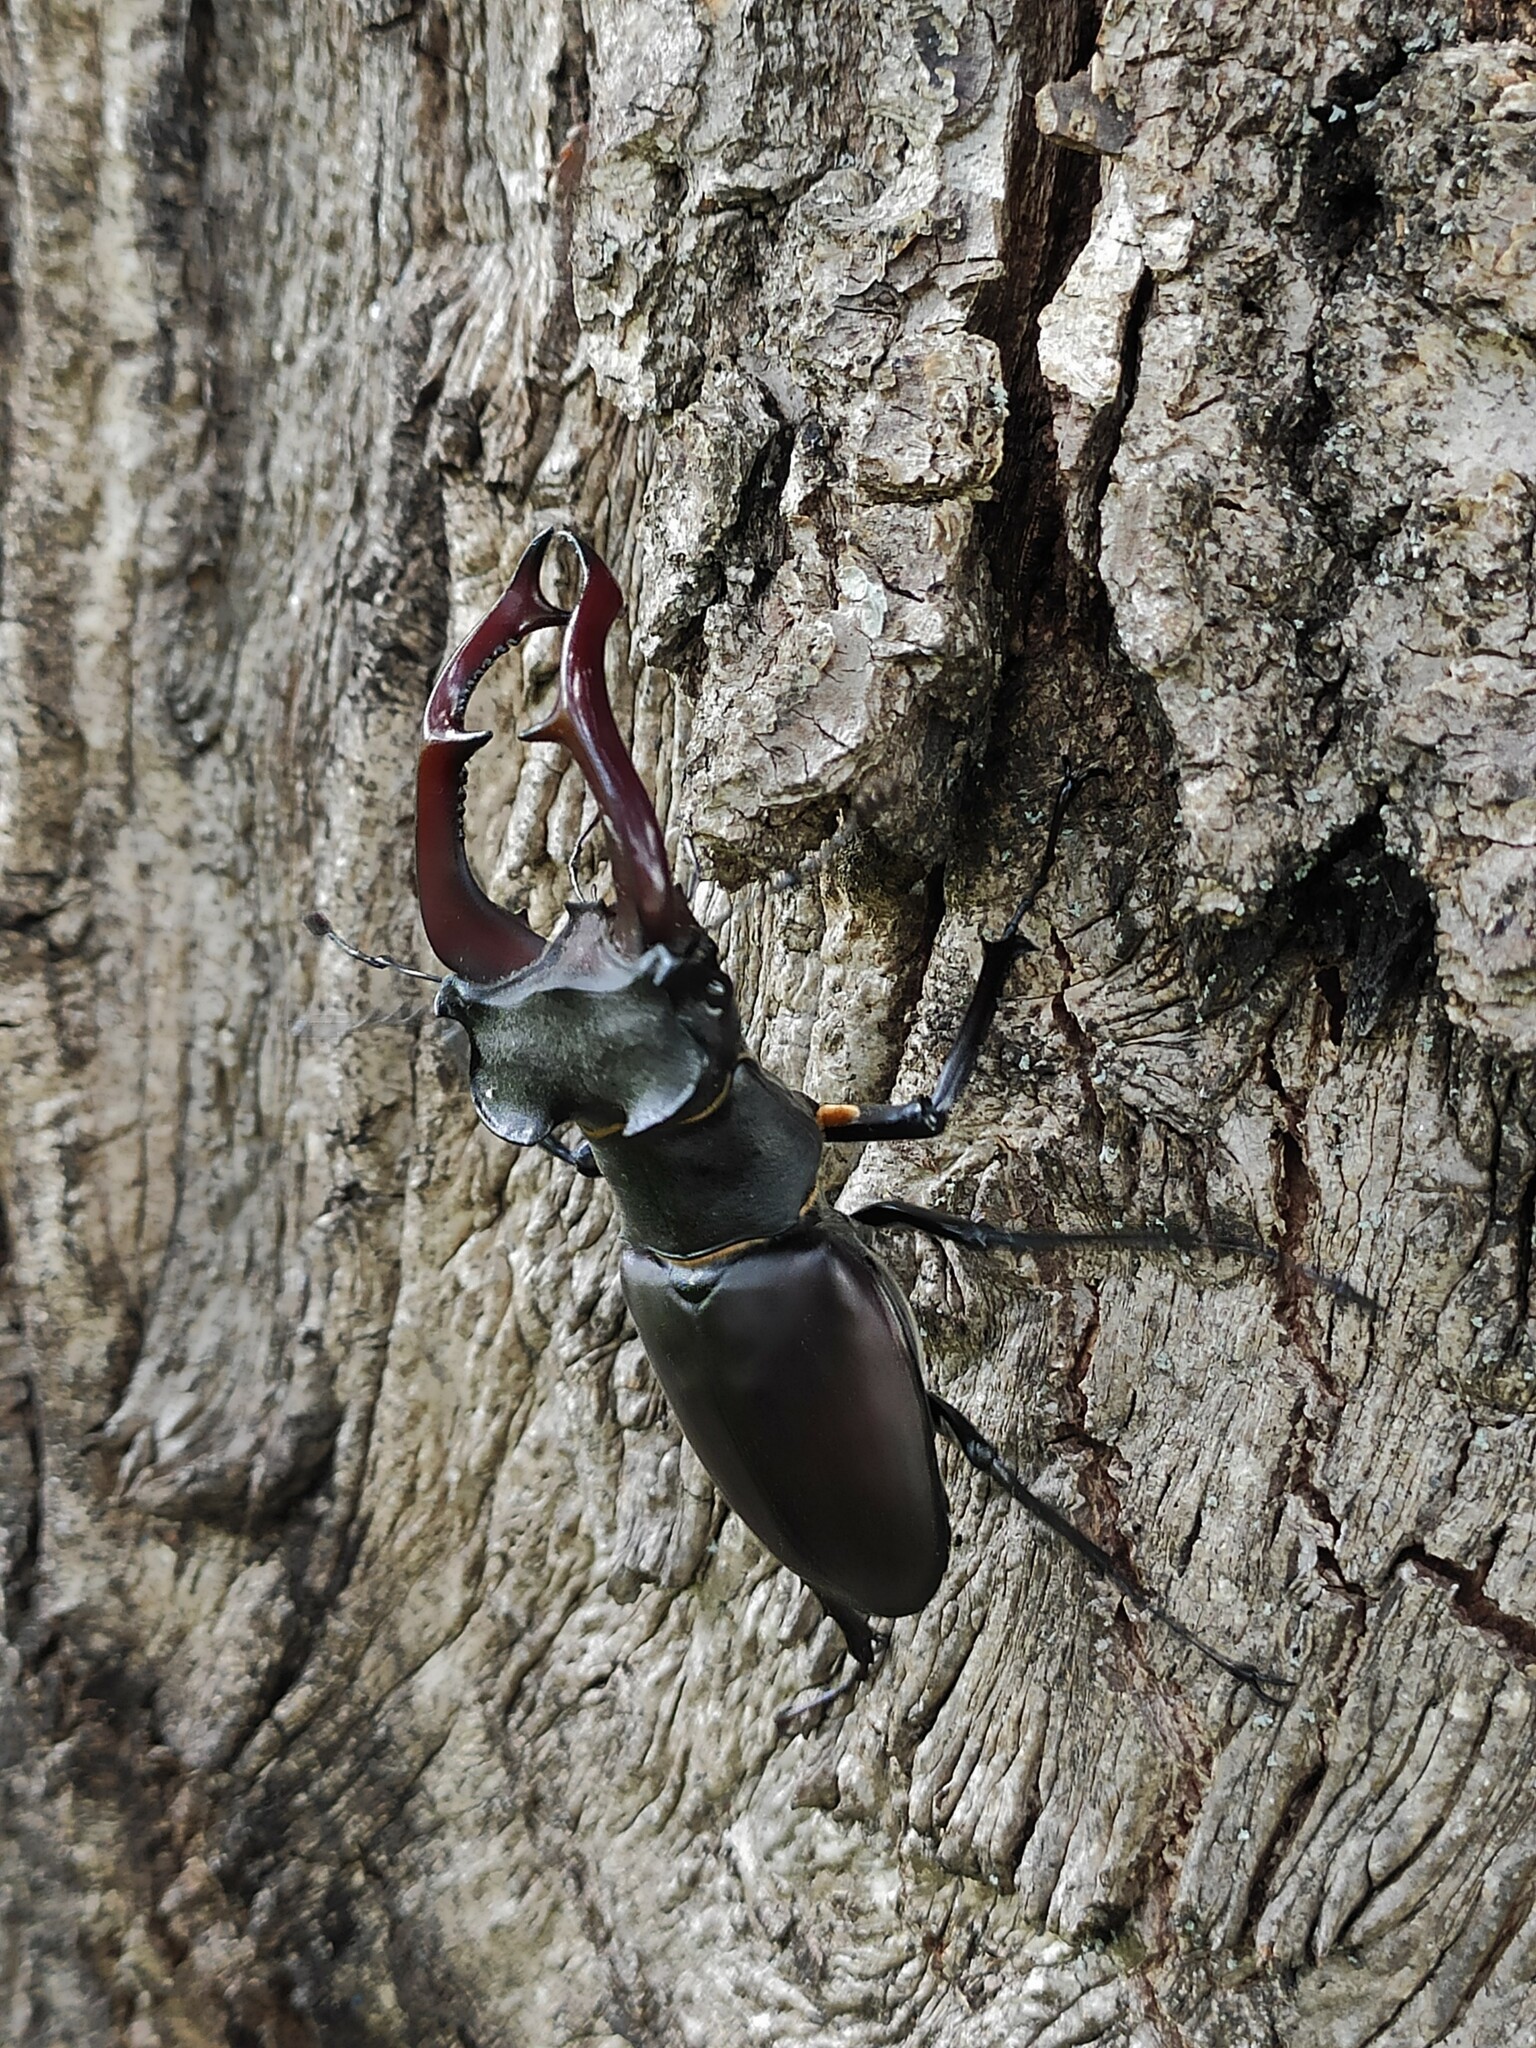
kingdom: Animalia
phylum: Arthropoda
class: Insecta
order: Coleoptera
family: Lucanidae
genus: Lucanus
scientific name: Lucanus cervus
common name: Stag beetle
